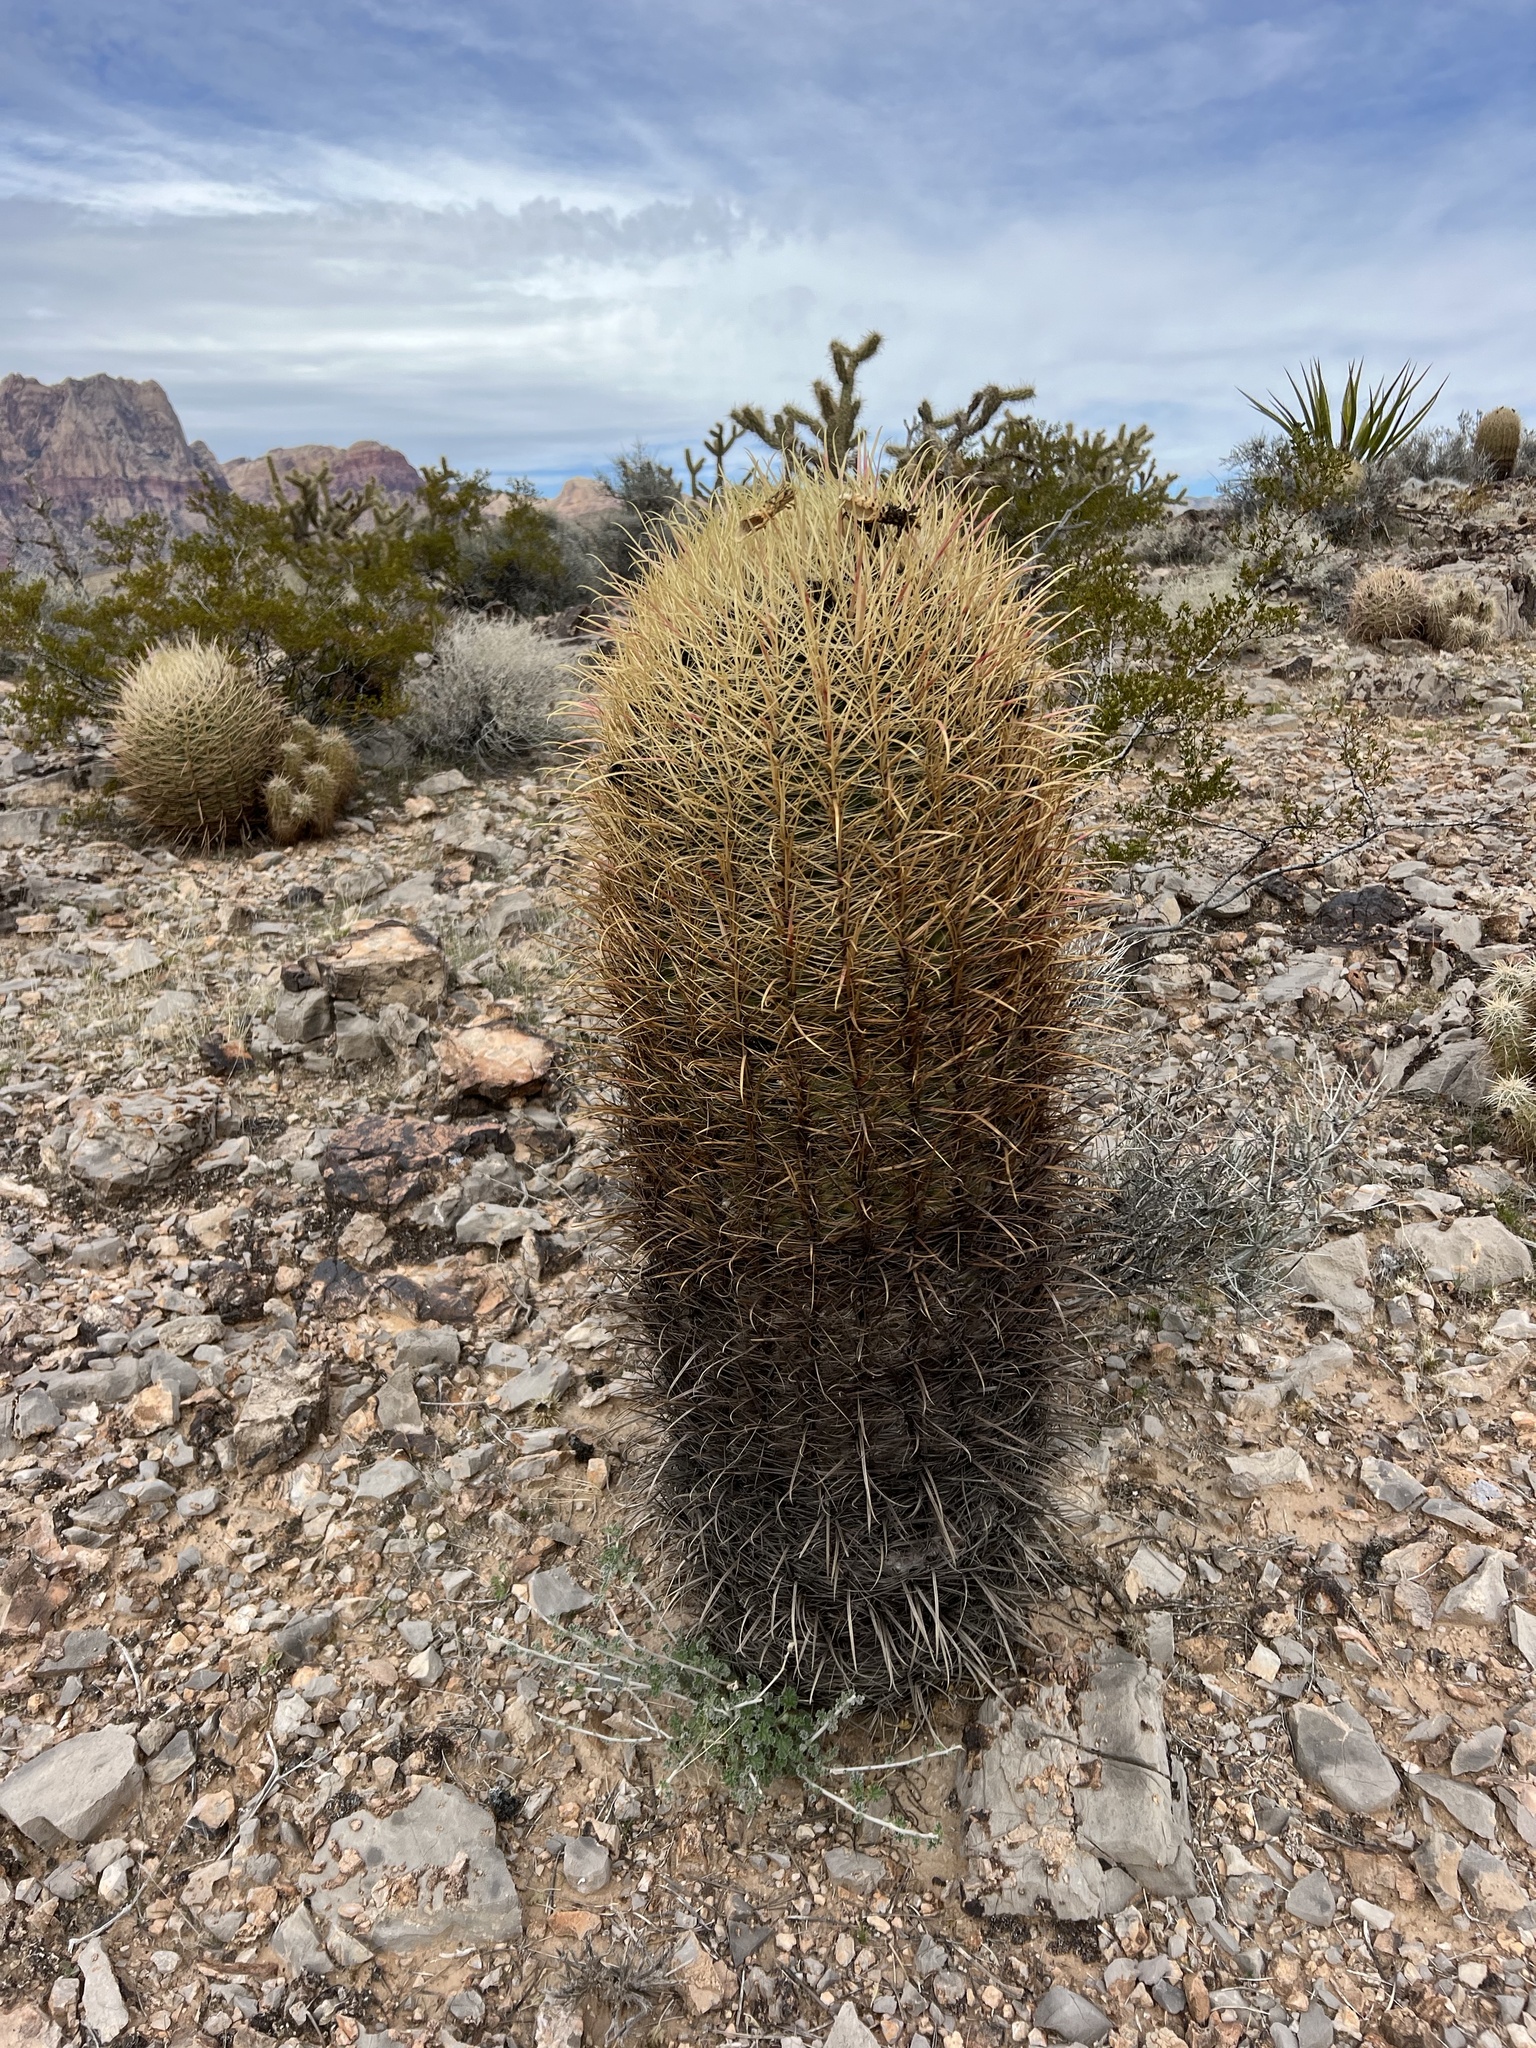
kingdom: Plantae
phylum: Tracheophyta
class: Magnoliopsida
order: Caryophyllales
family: Cactaceae
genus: Ferocactus
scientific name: Ferocactus cylindraceus
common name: California barrel cactus
